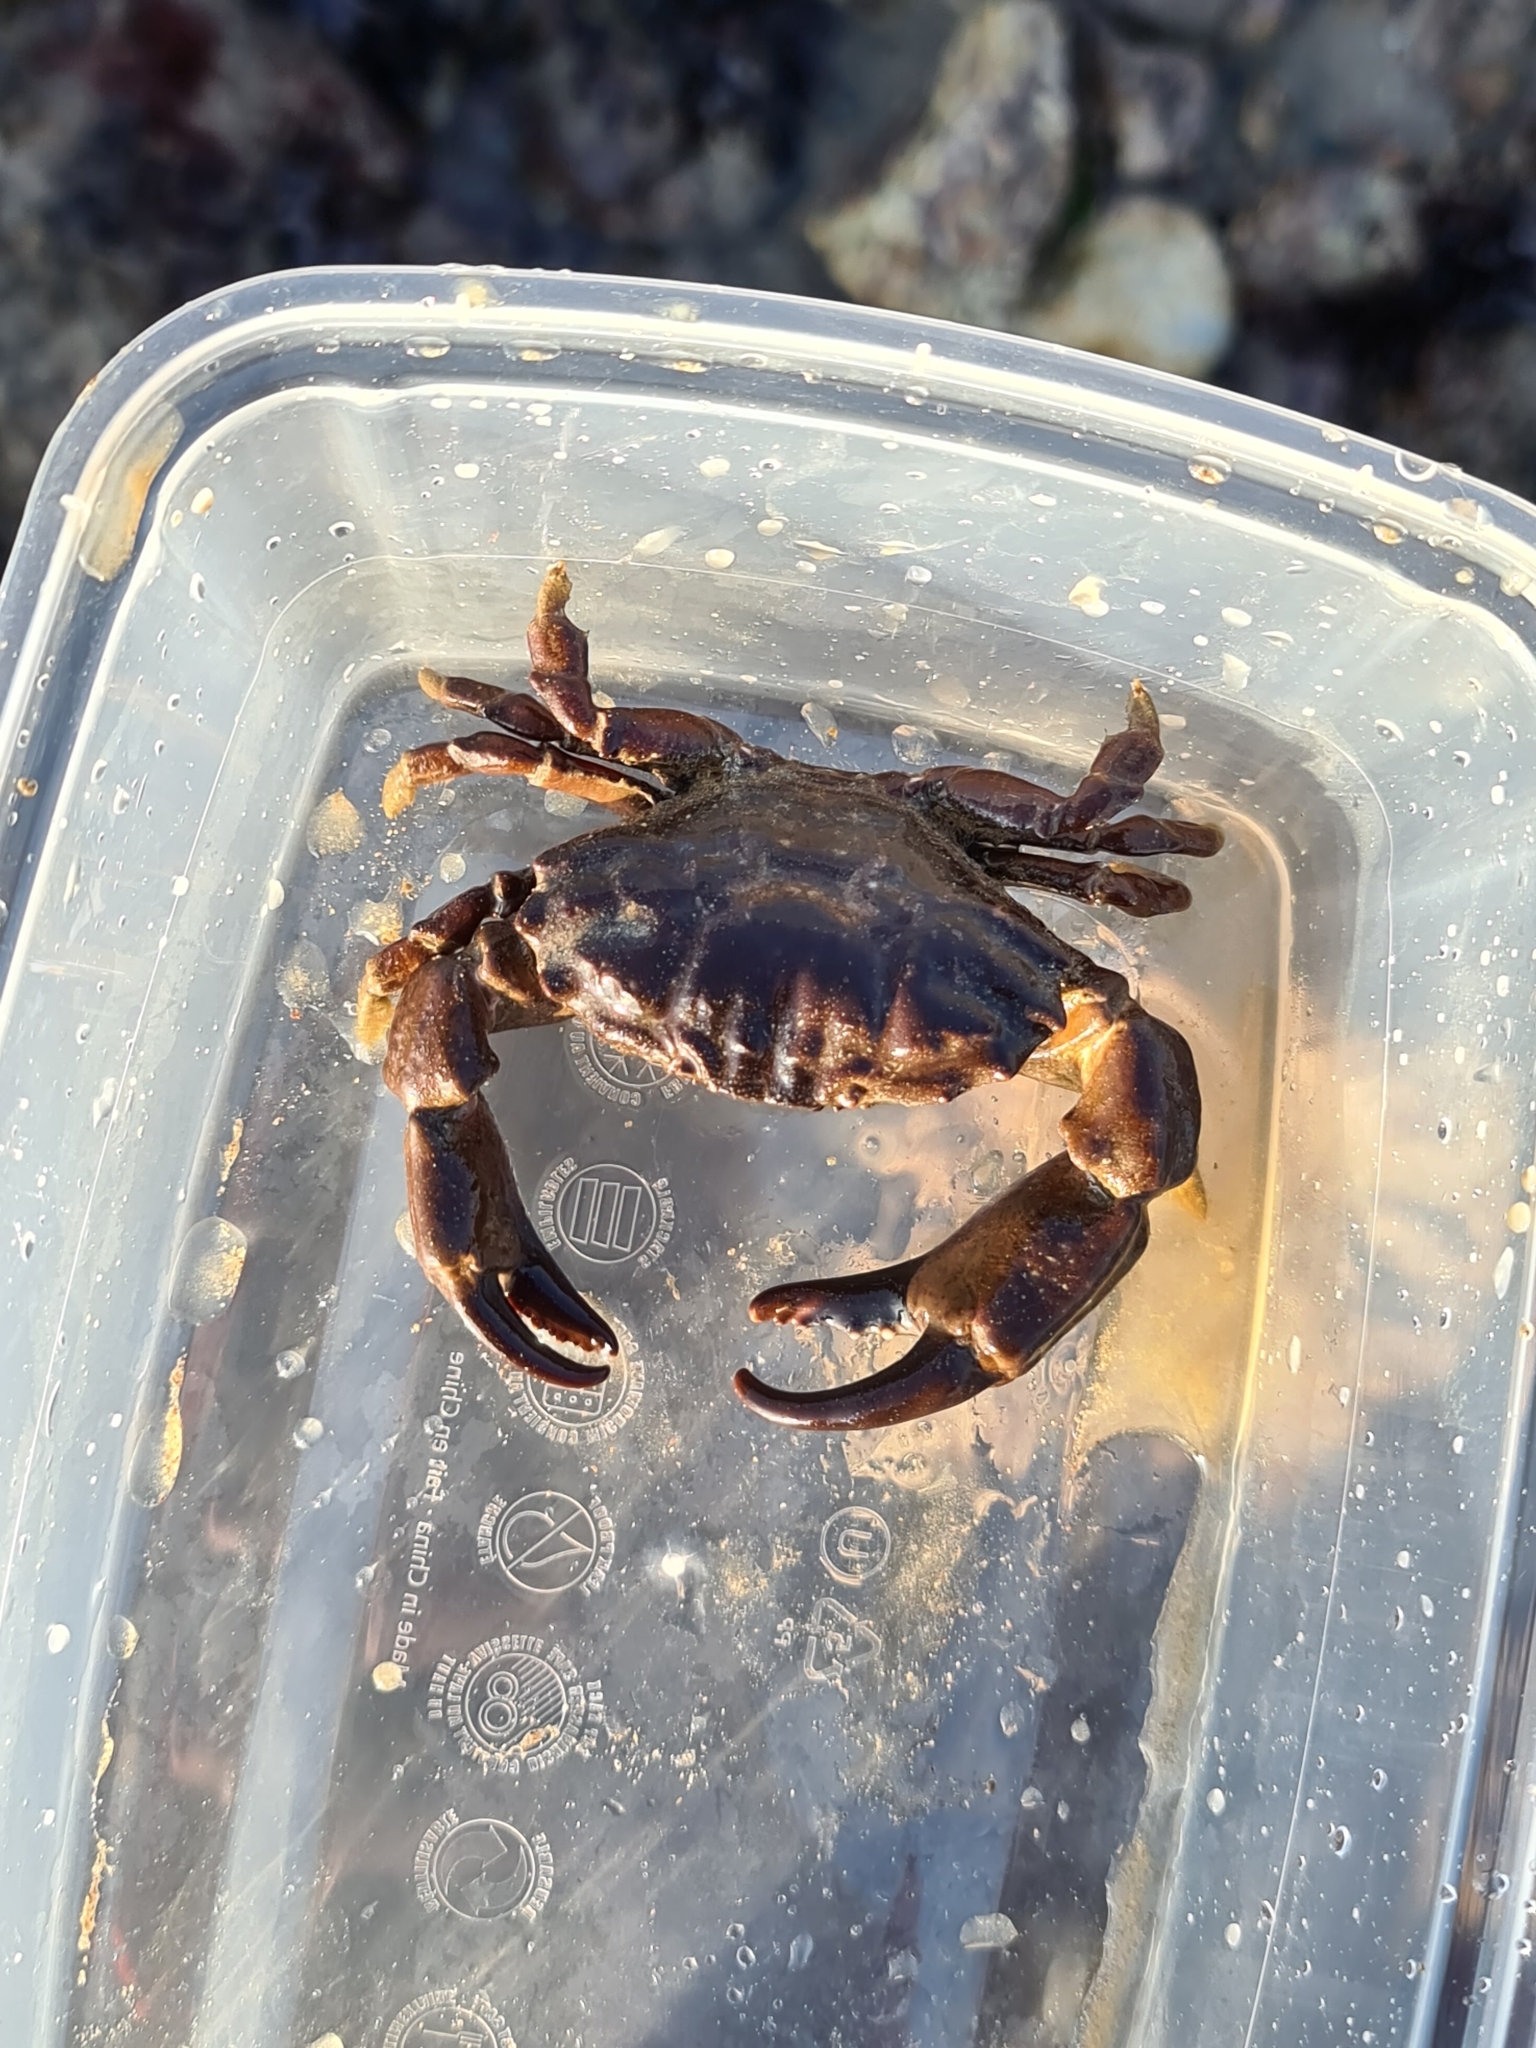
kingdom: Animalia
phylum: Arthropoda
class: Malacostraca
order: Decapoda
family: Xanthidae
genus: Xantho
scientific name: Xantho hydrophilus
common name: Montagu's crab
